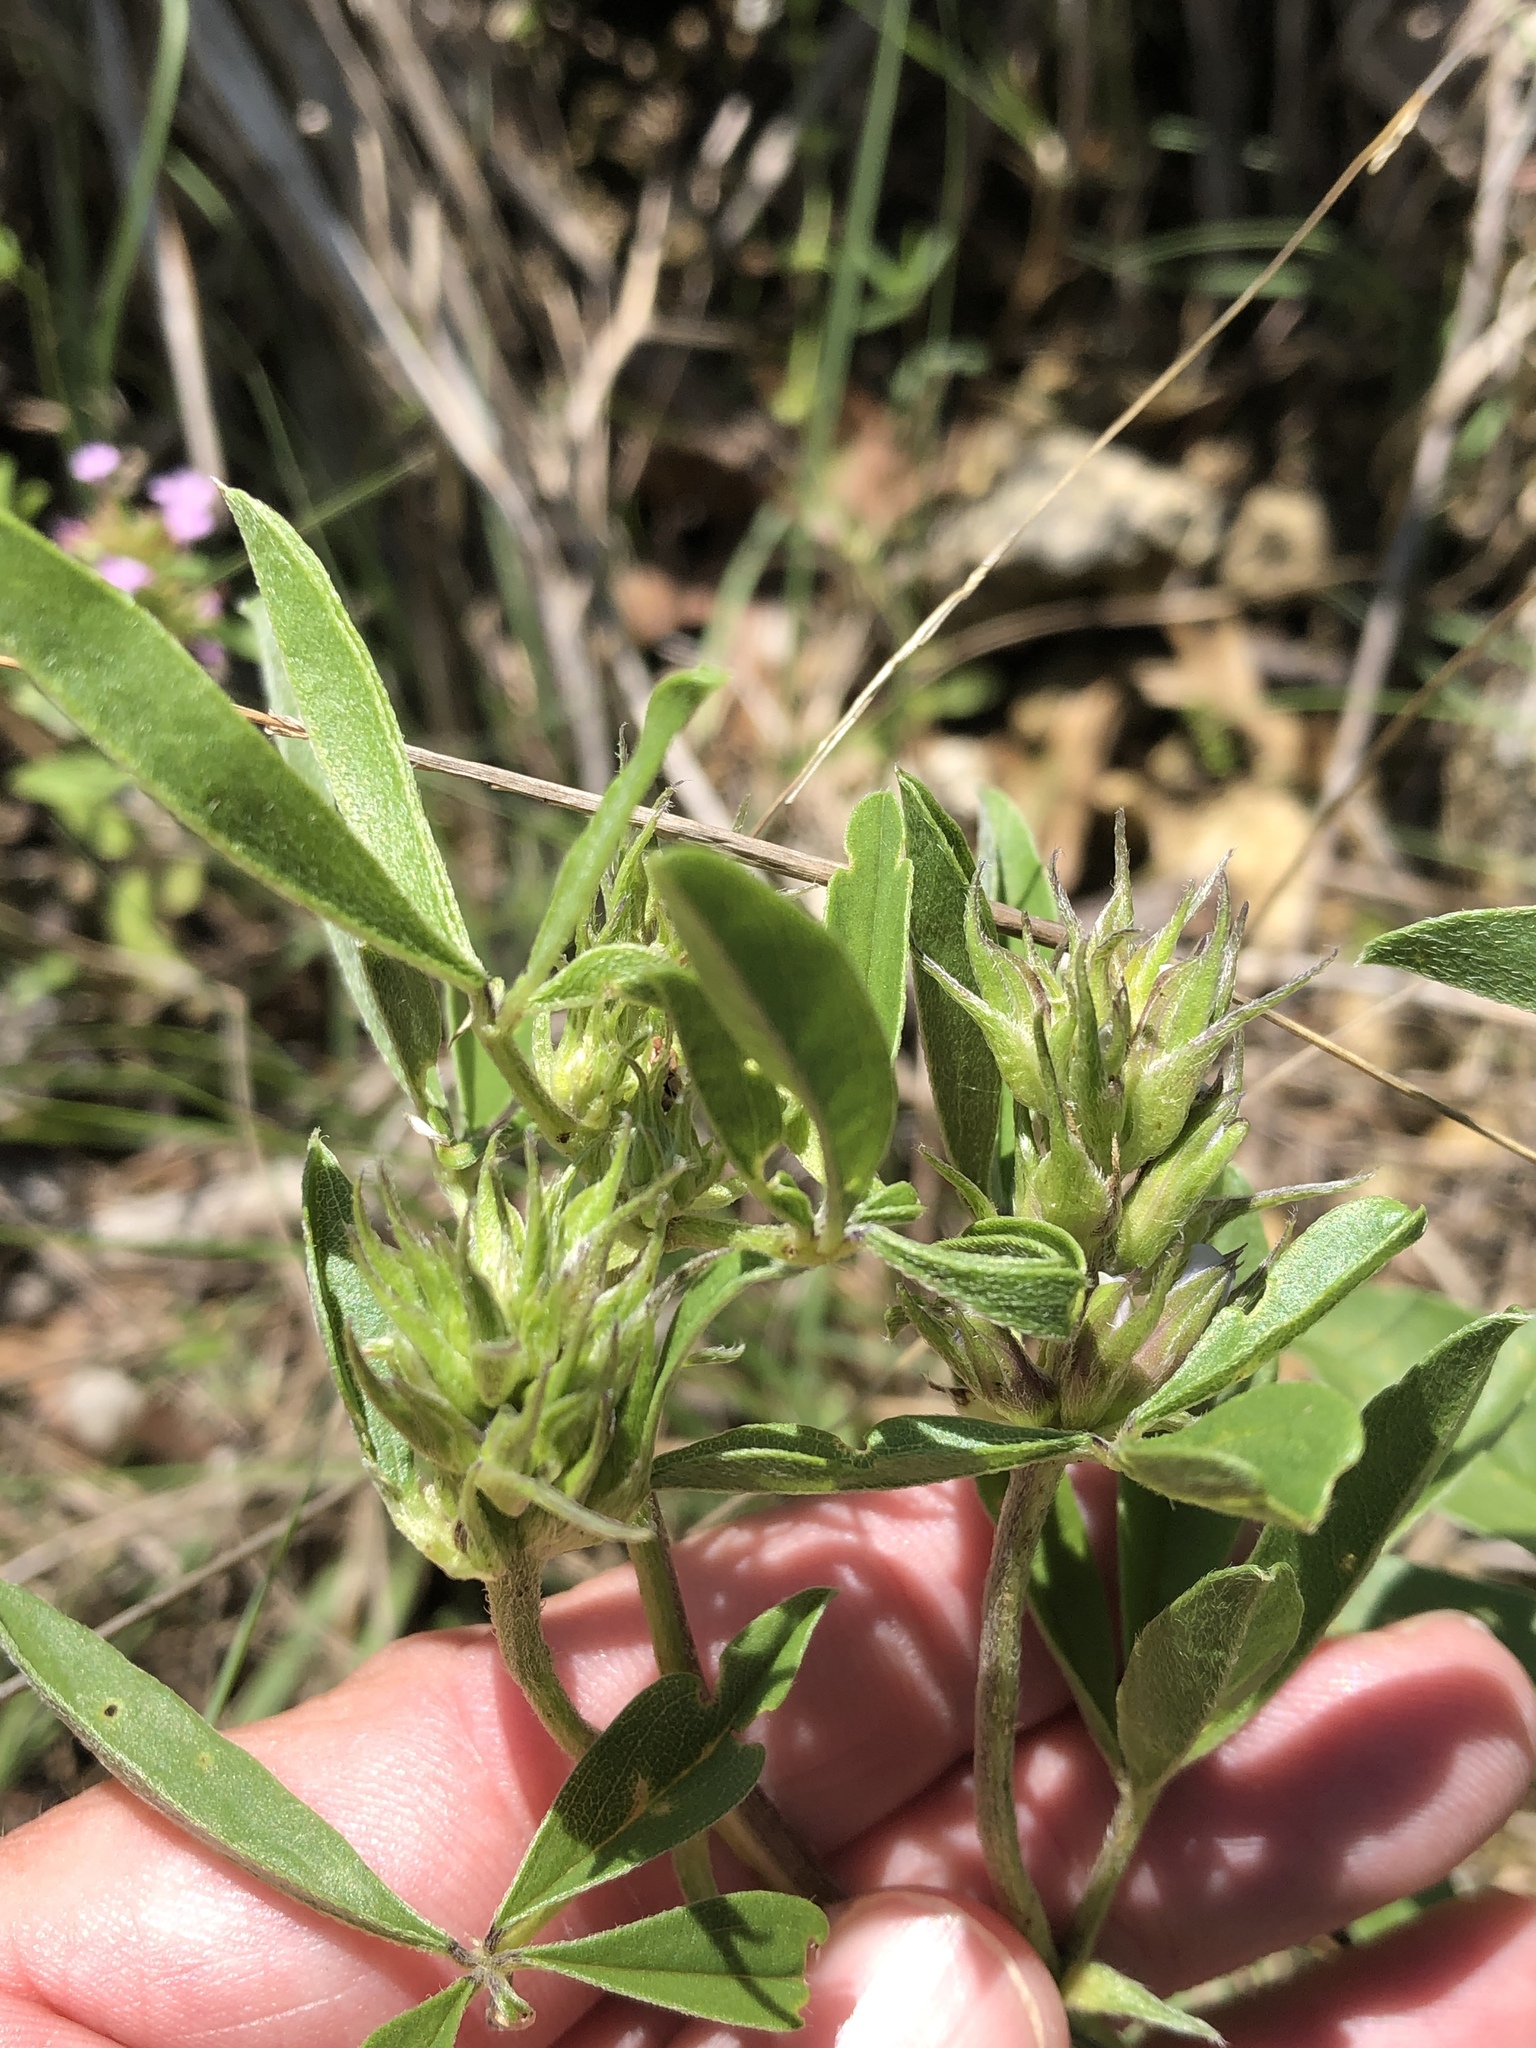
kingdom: Plantae
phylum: Tracheophyta
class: Magnoliopsida
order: Fabales
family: Fabaceae
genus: Pediomelum
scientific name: Pediomelum cuspidatum
